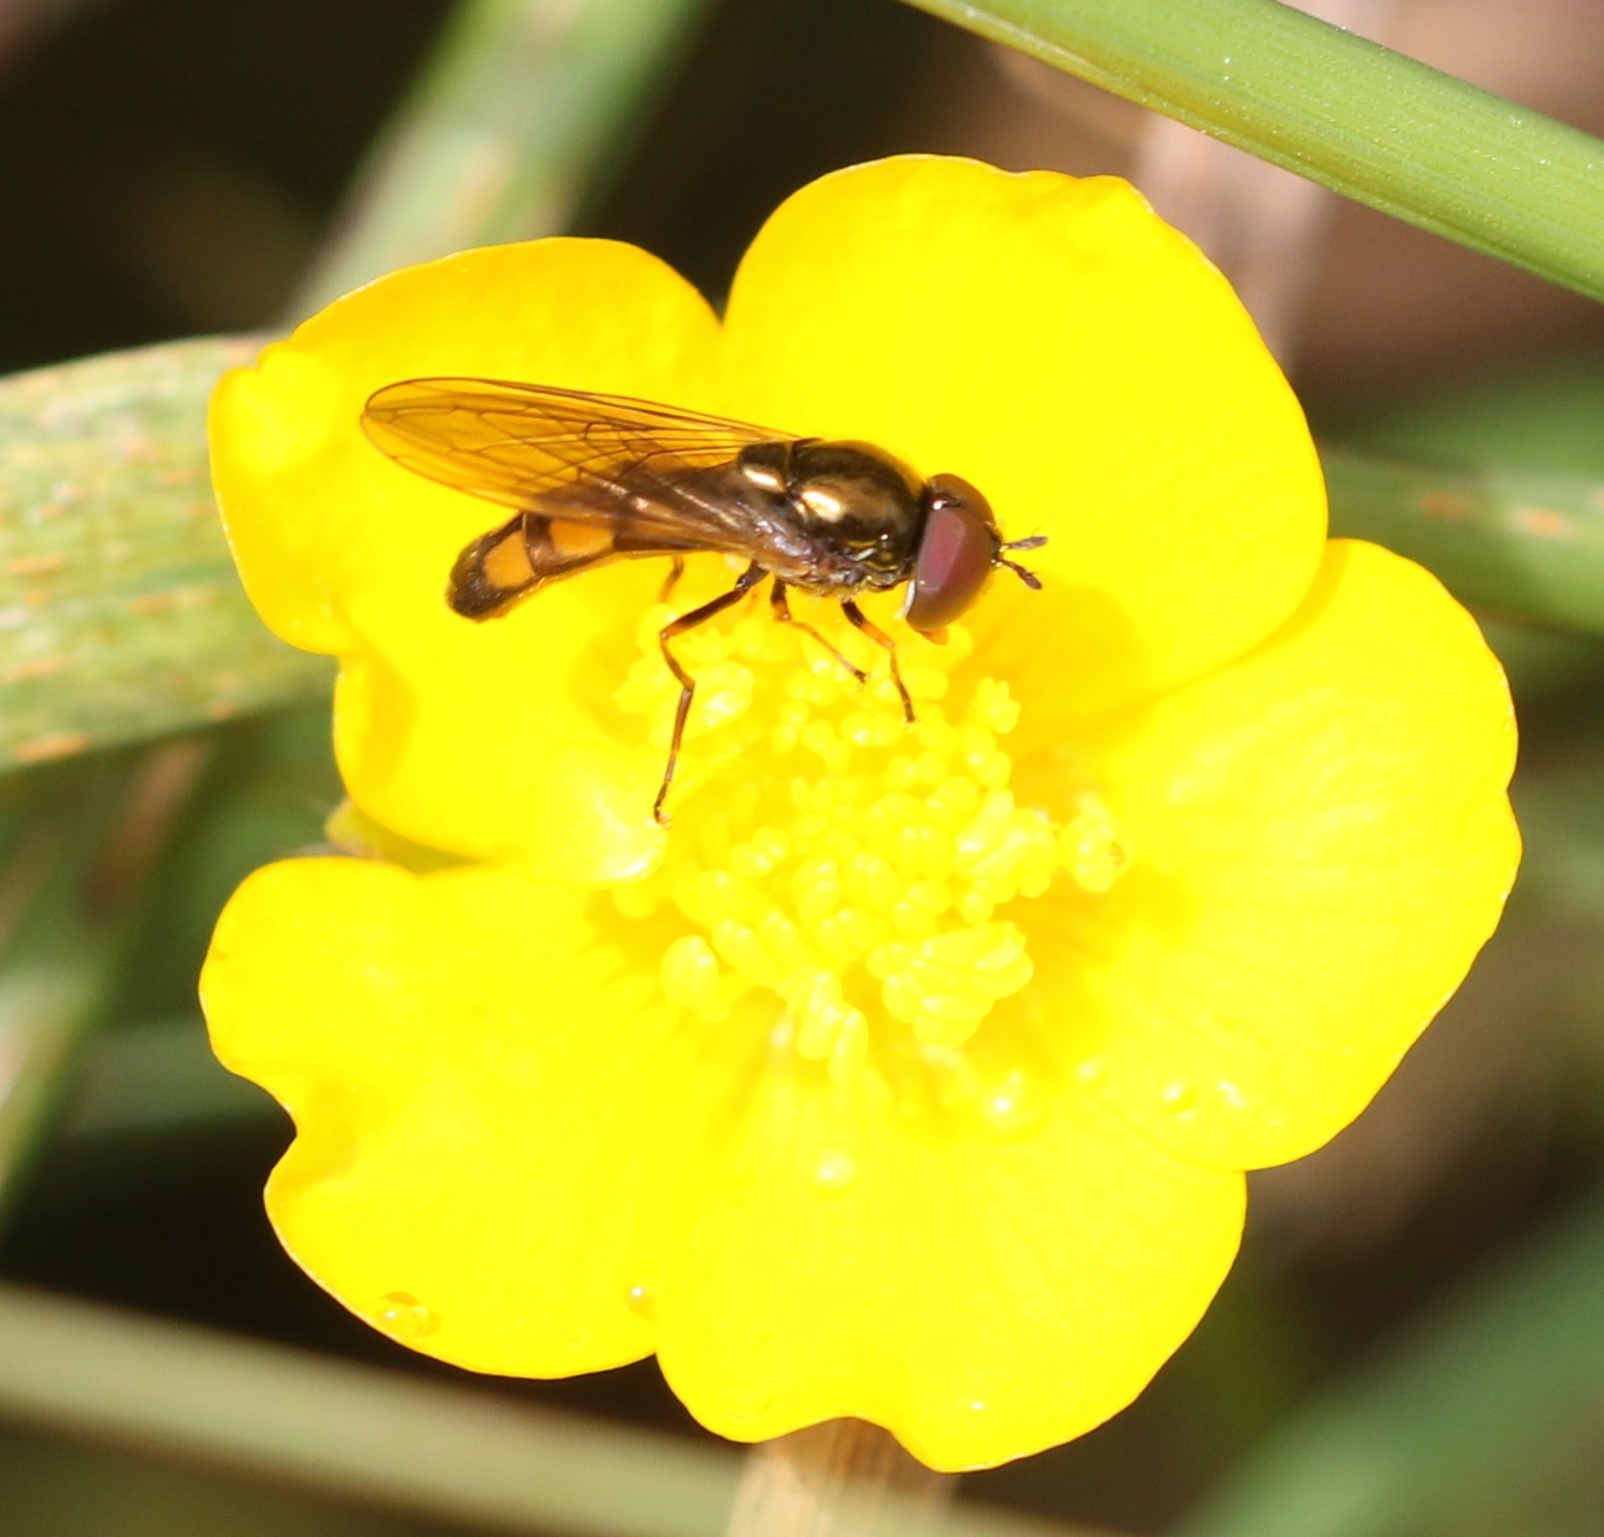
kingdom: Animalia
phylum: Arthropoda
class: Insecta
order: Diptera
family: Syrphidae
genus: Melanostoma
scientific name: Melanostoma mellina
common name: Hover fly
